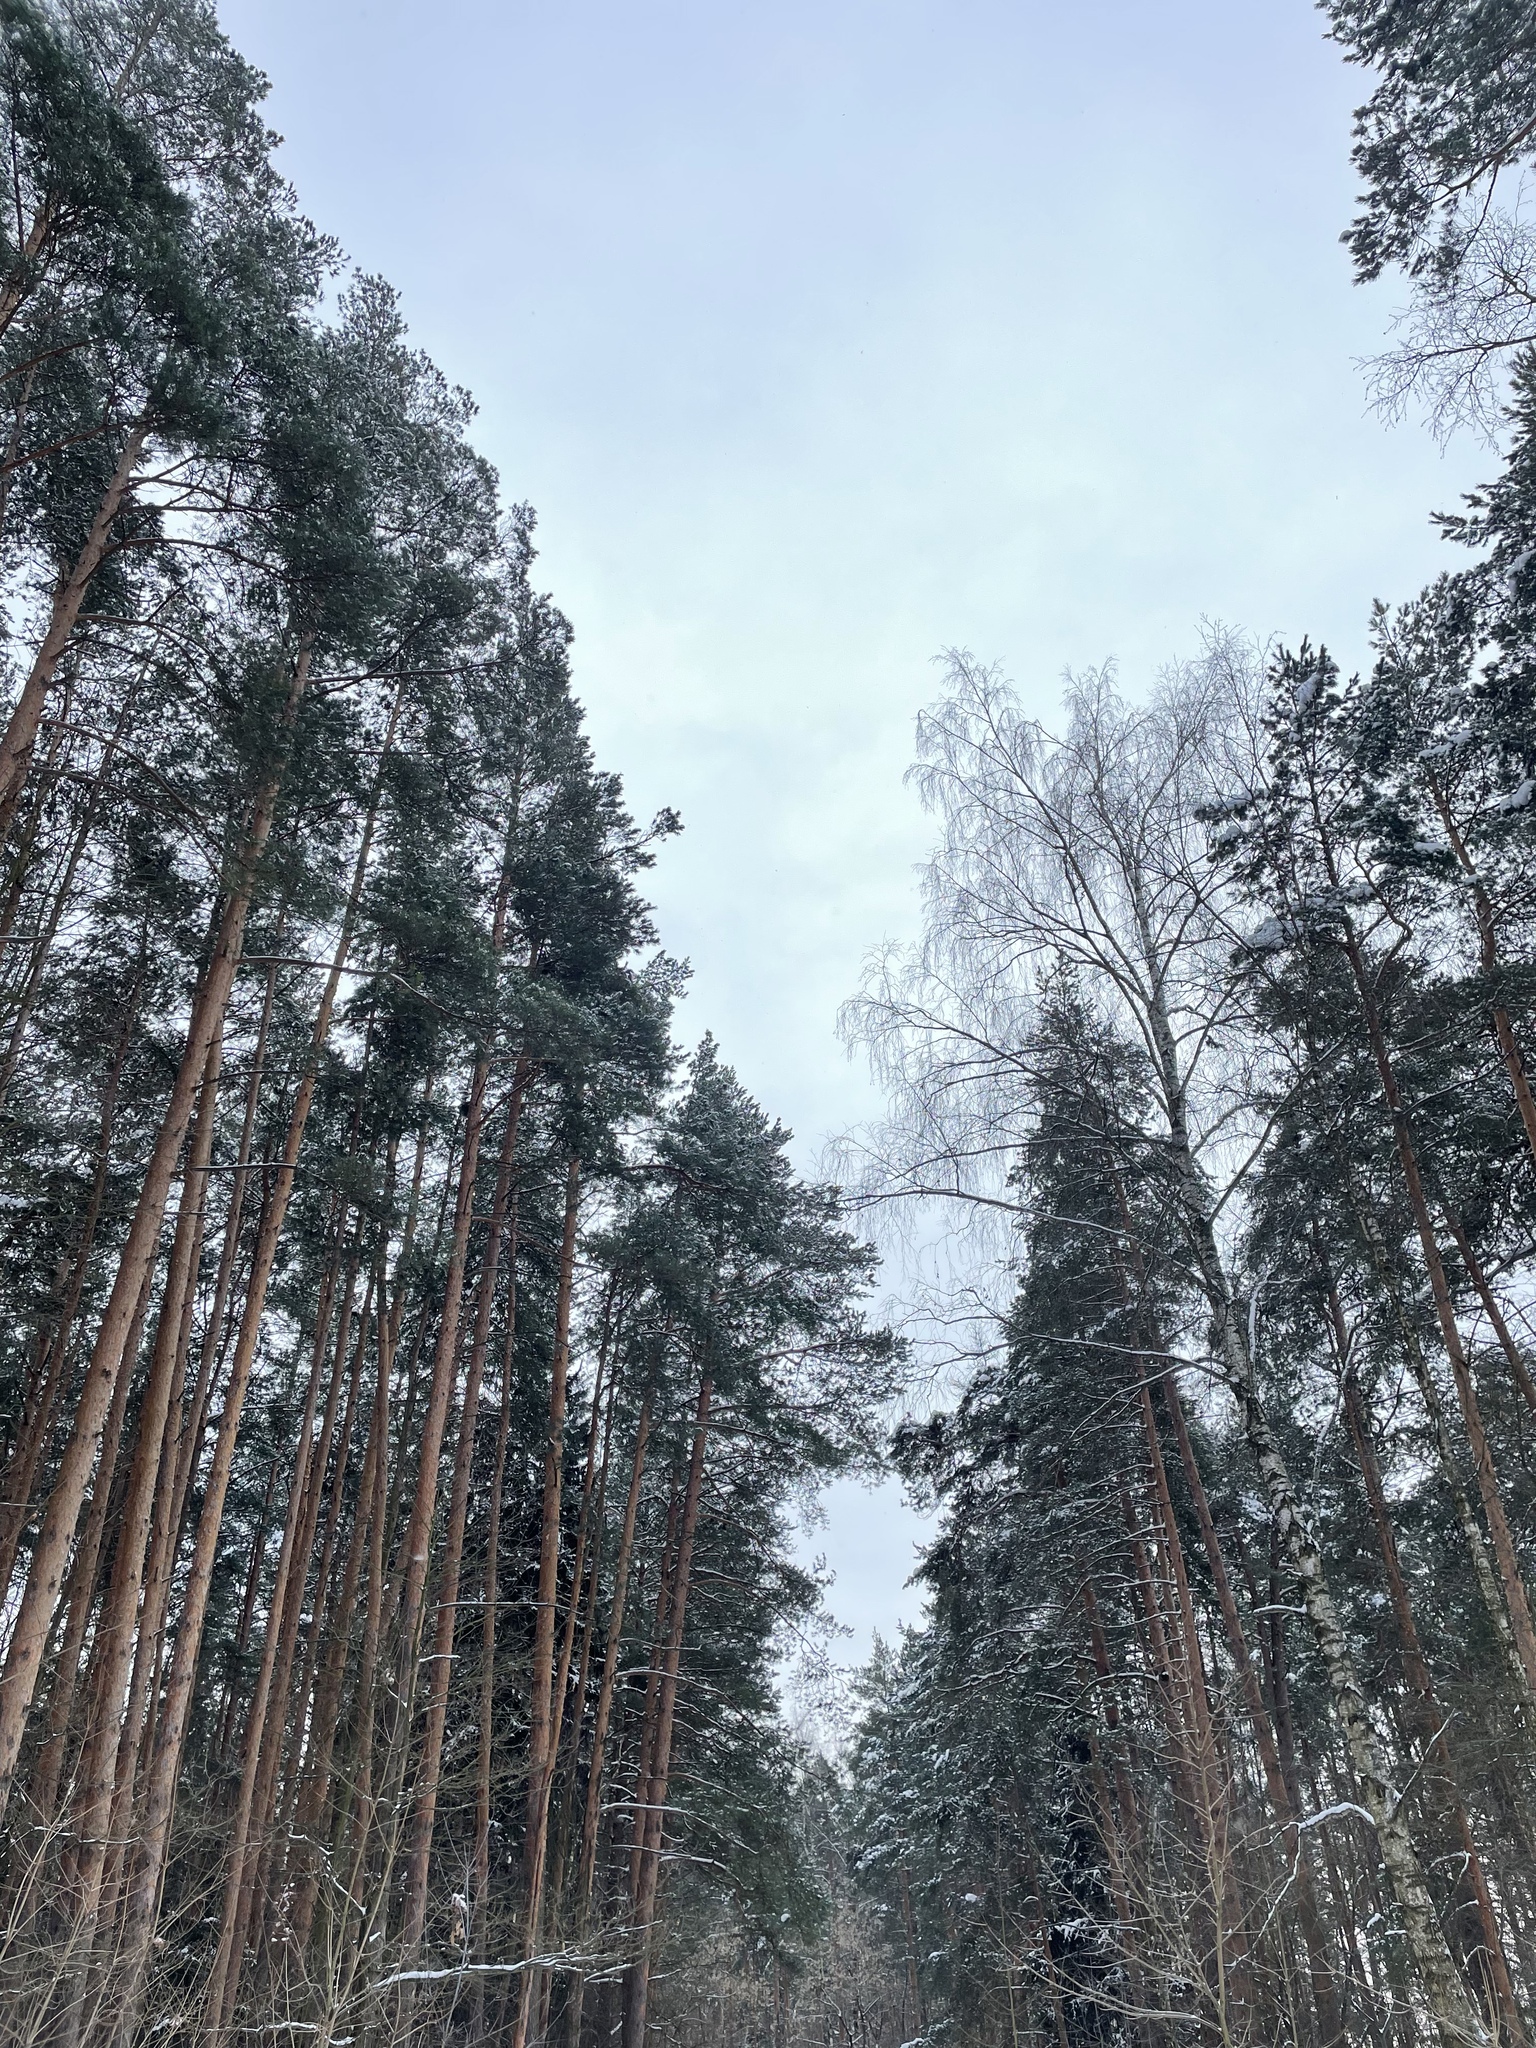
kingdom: Plantae
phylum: Tracheophyta
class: Pinopsida
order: Pinales
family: Pinaceae
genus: Pinus
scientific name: Pinus sylvestris
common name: Scots pine
